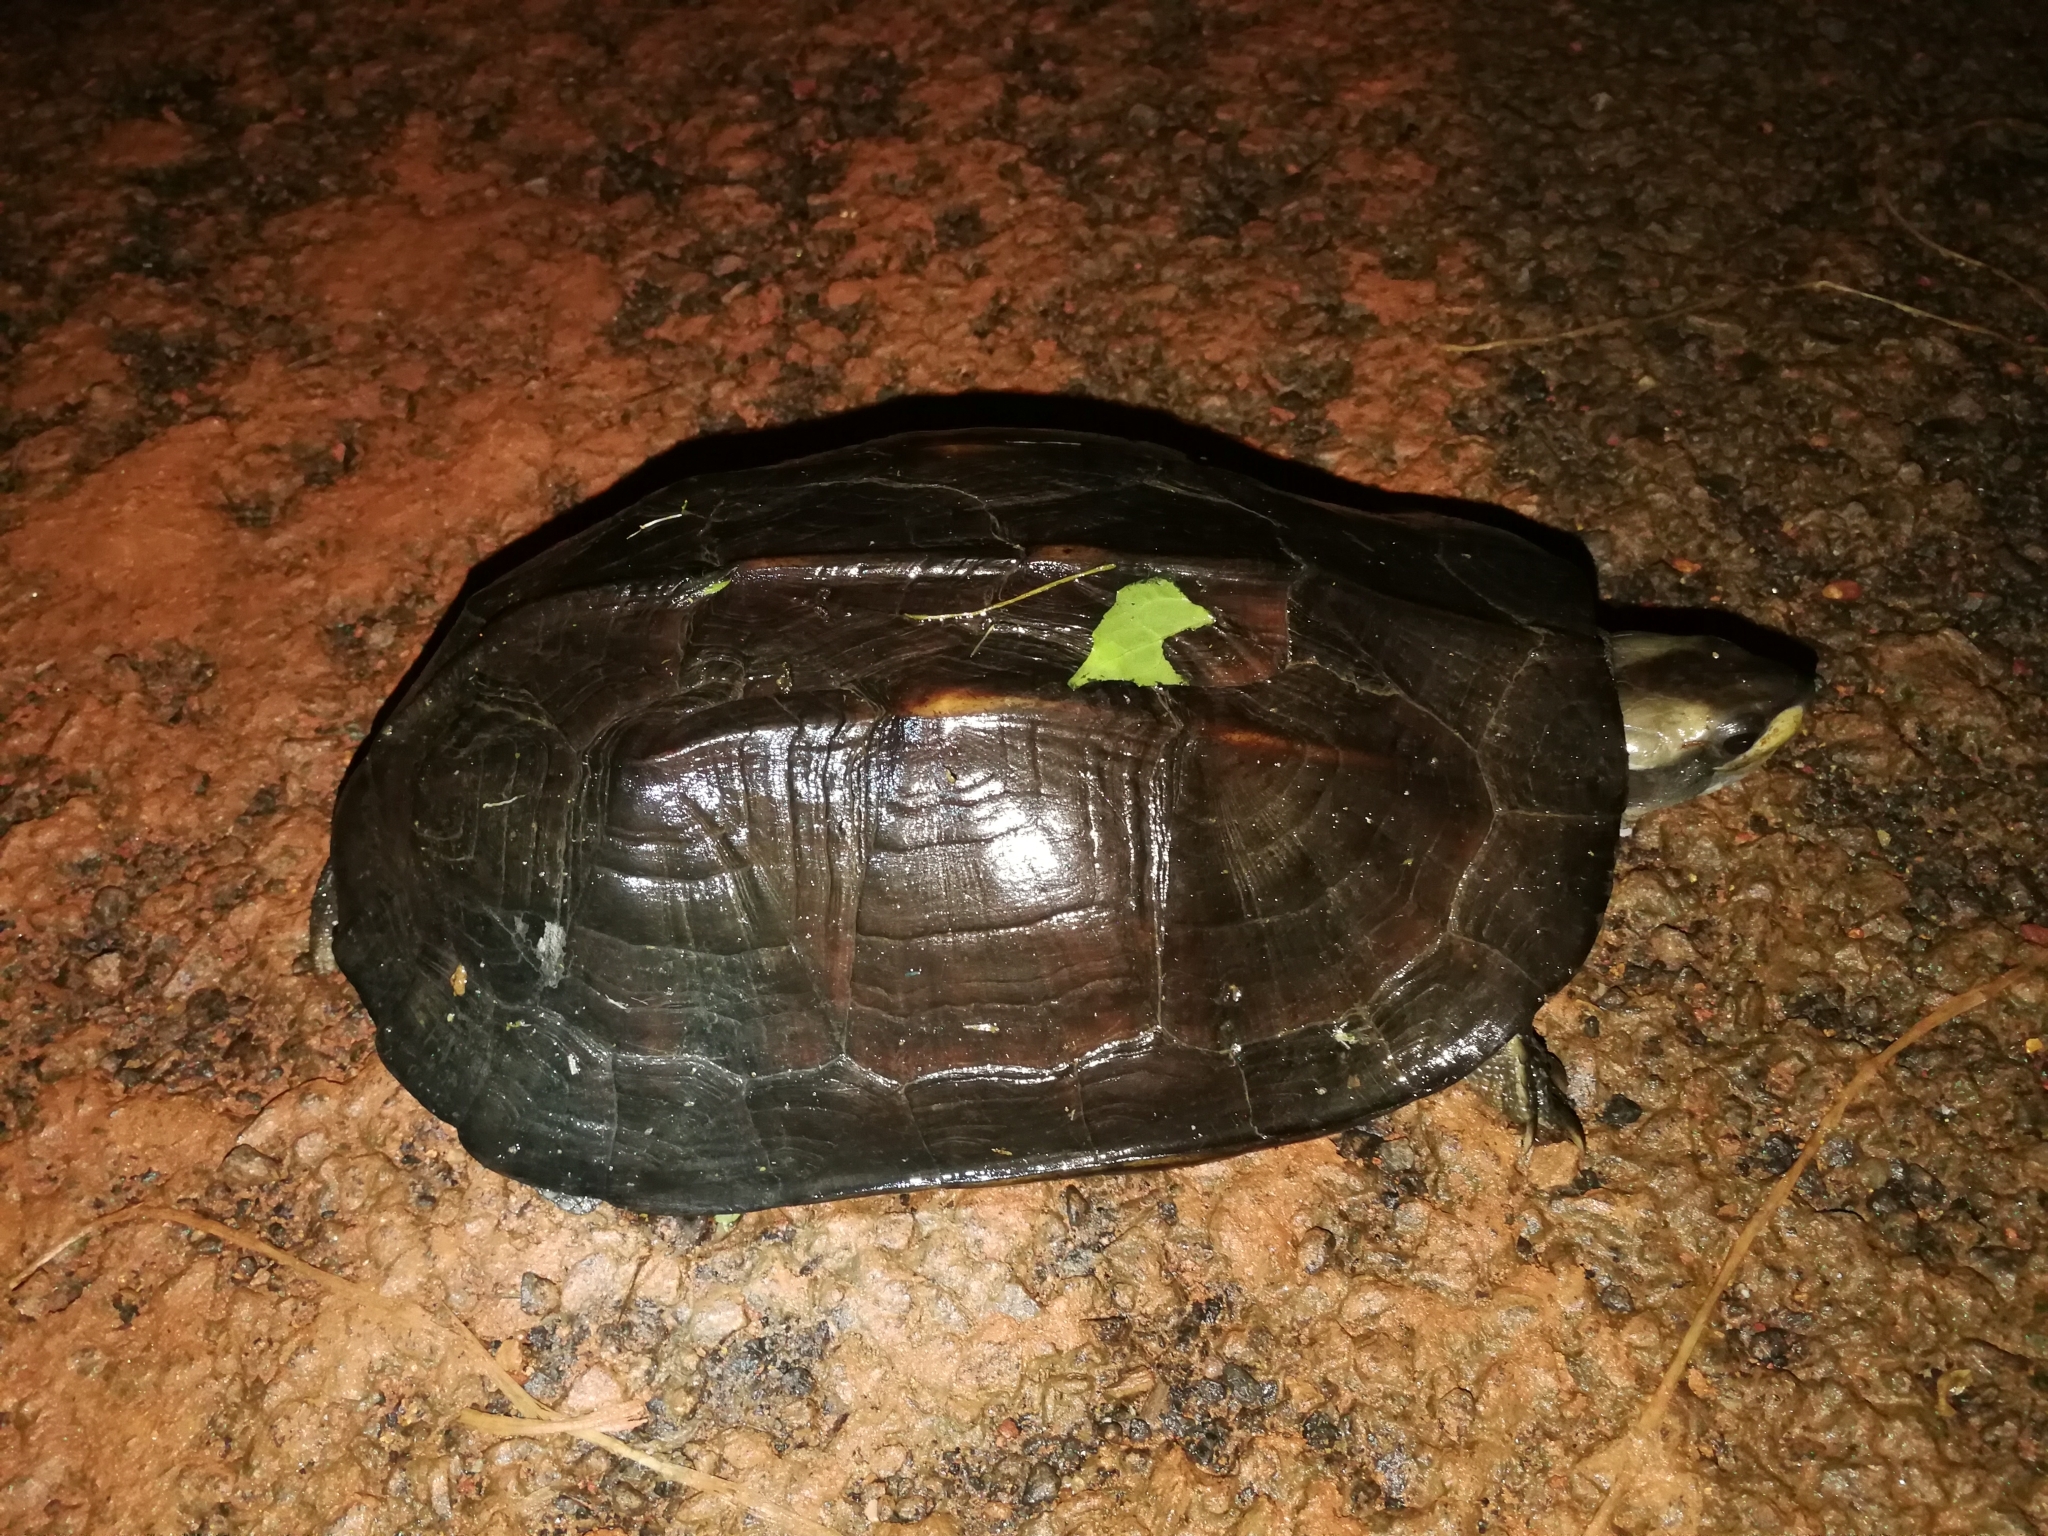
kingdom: Animalia
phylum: Chordata
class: Testudines
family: Geoemydidae
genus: Melanochelys
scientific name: Melanochelys trijuga
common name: Indian black turtle
